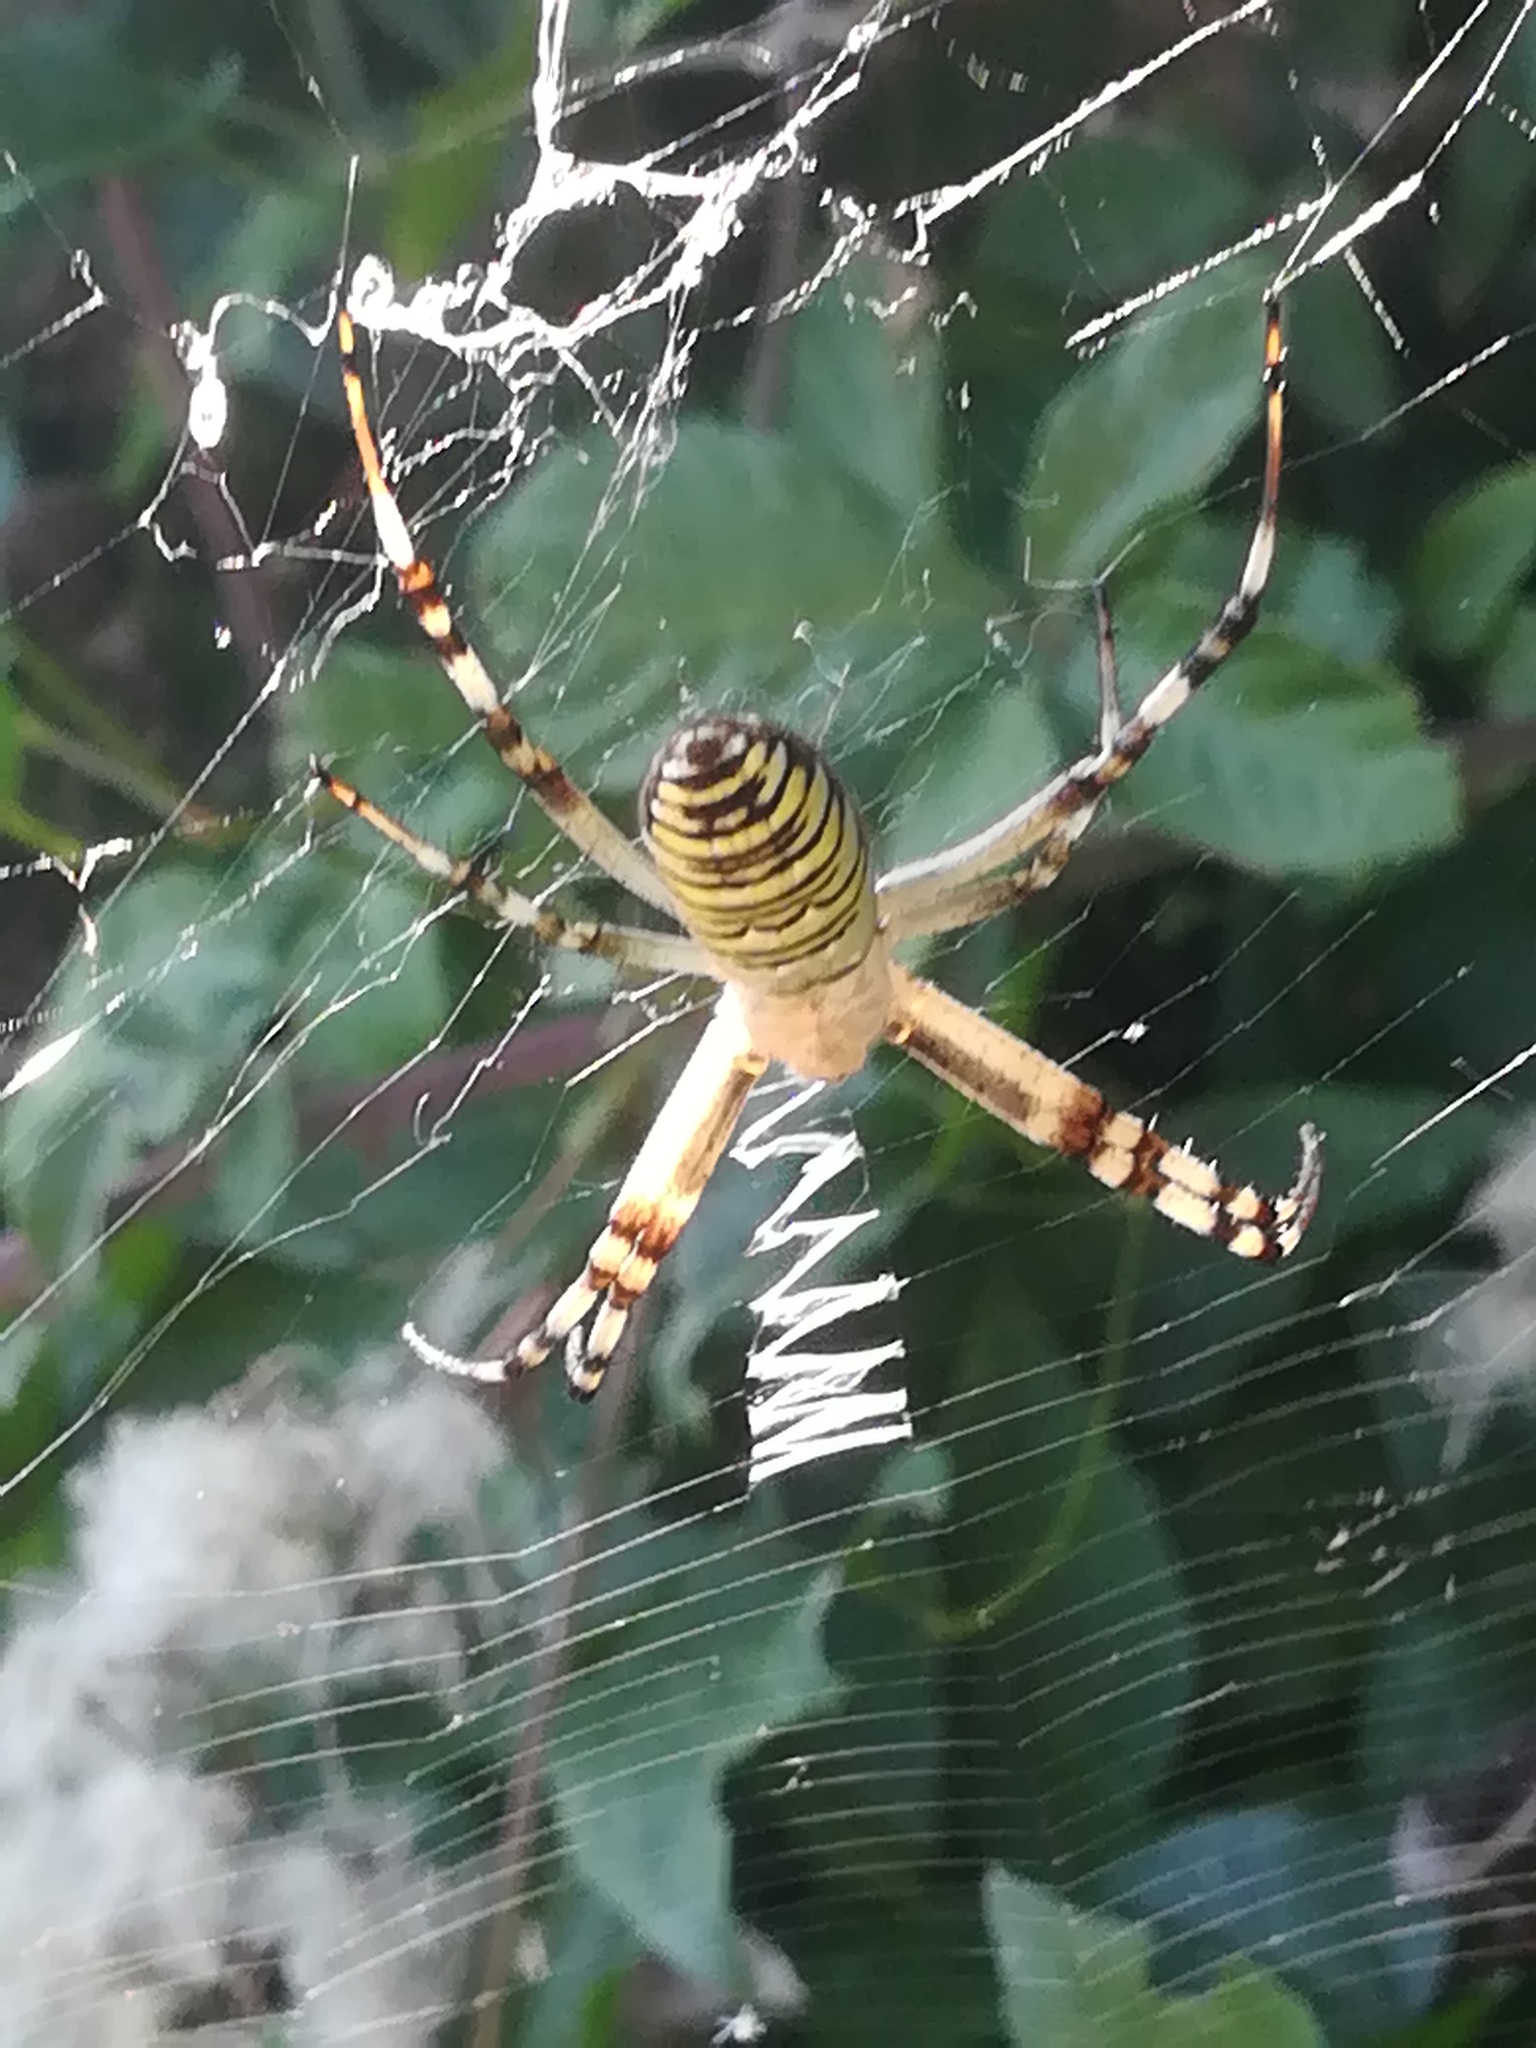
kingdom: Animalia
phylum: Arthropoda
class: Arachnida
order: Araneae
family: Araneidae
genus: Argiope
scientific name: Argiope bruennichi
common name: Wasp spider
